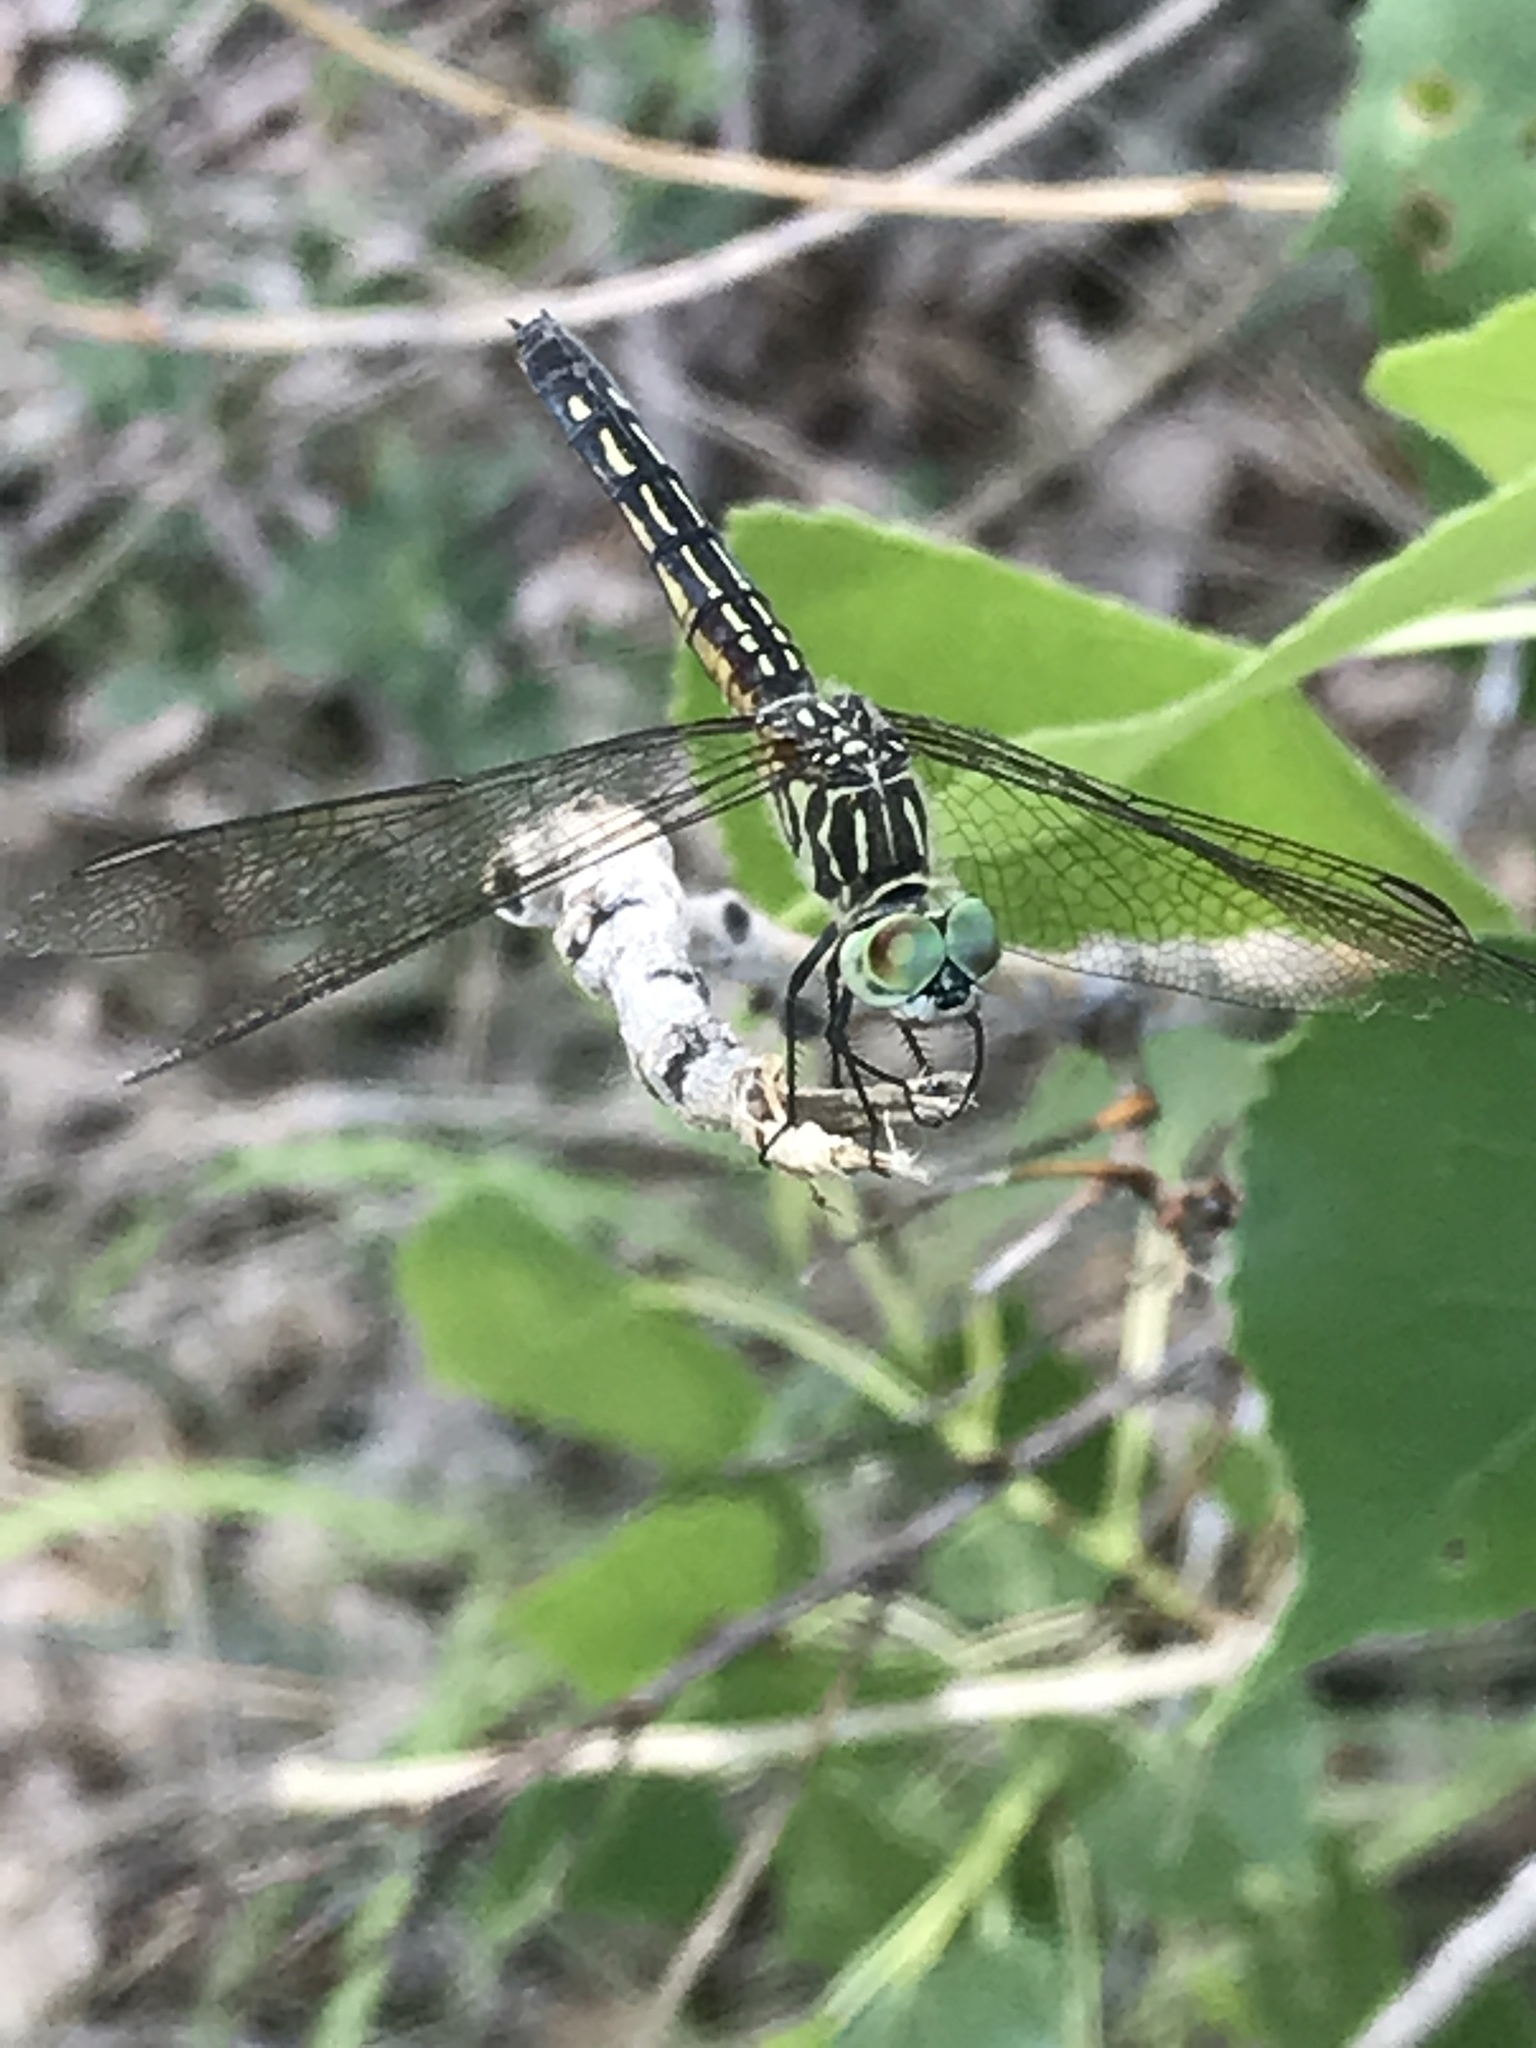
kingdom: Animalia
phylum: Arthropoda
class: Insecta
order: Odonata
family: Libellulidae
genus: Pachydiplax
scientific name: Pachydiplax longipennis
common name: Blue dasher
